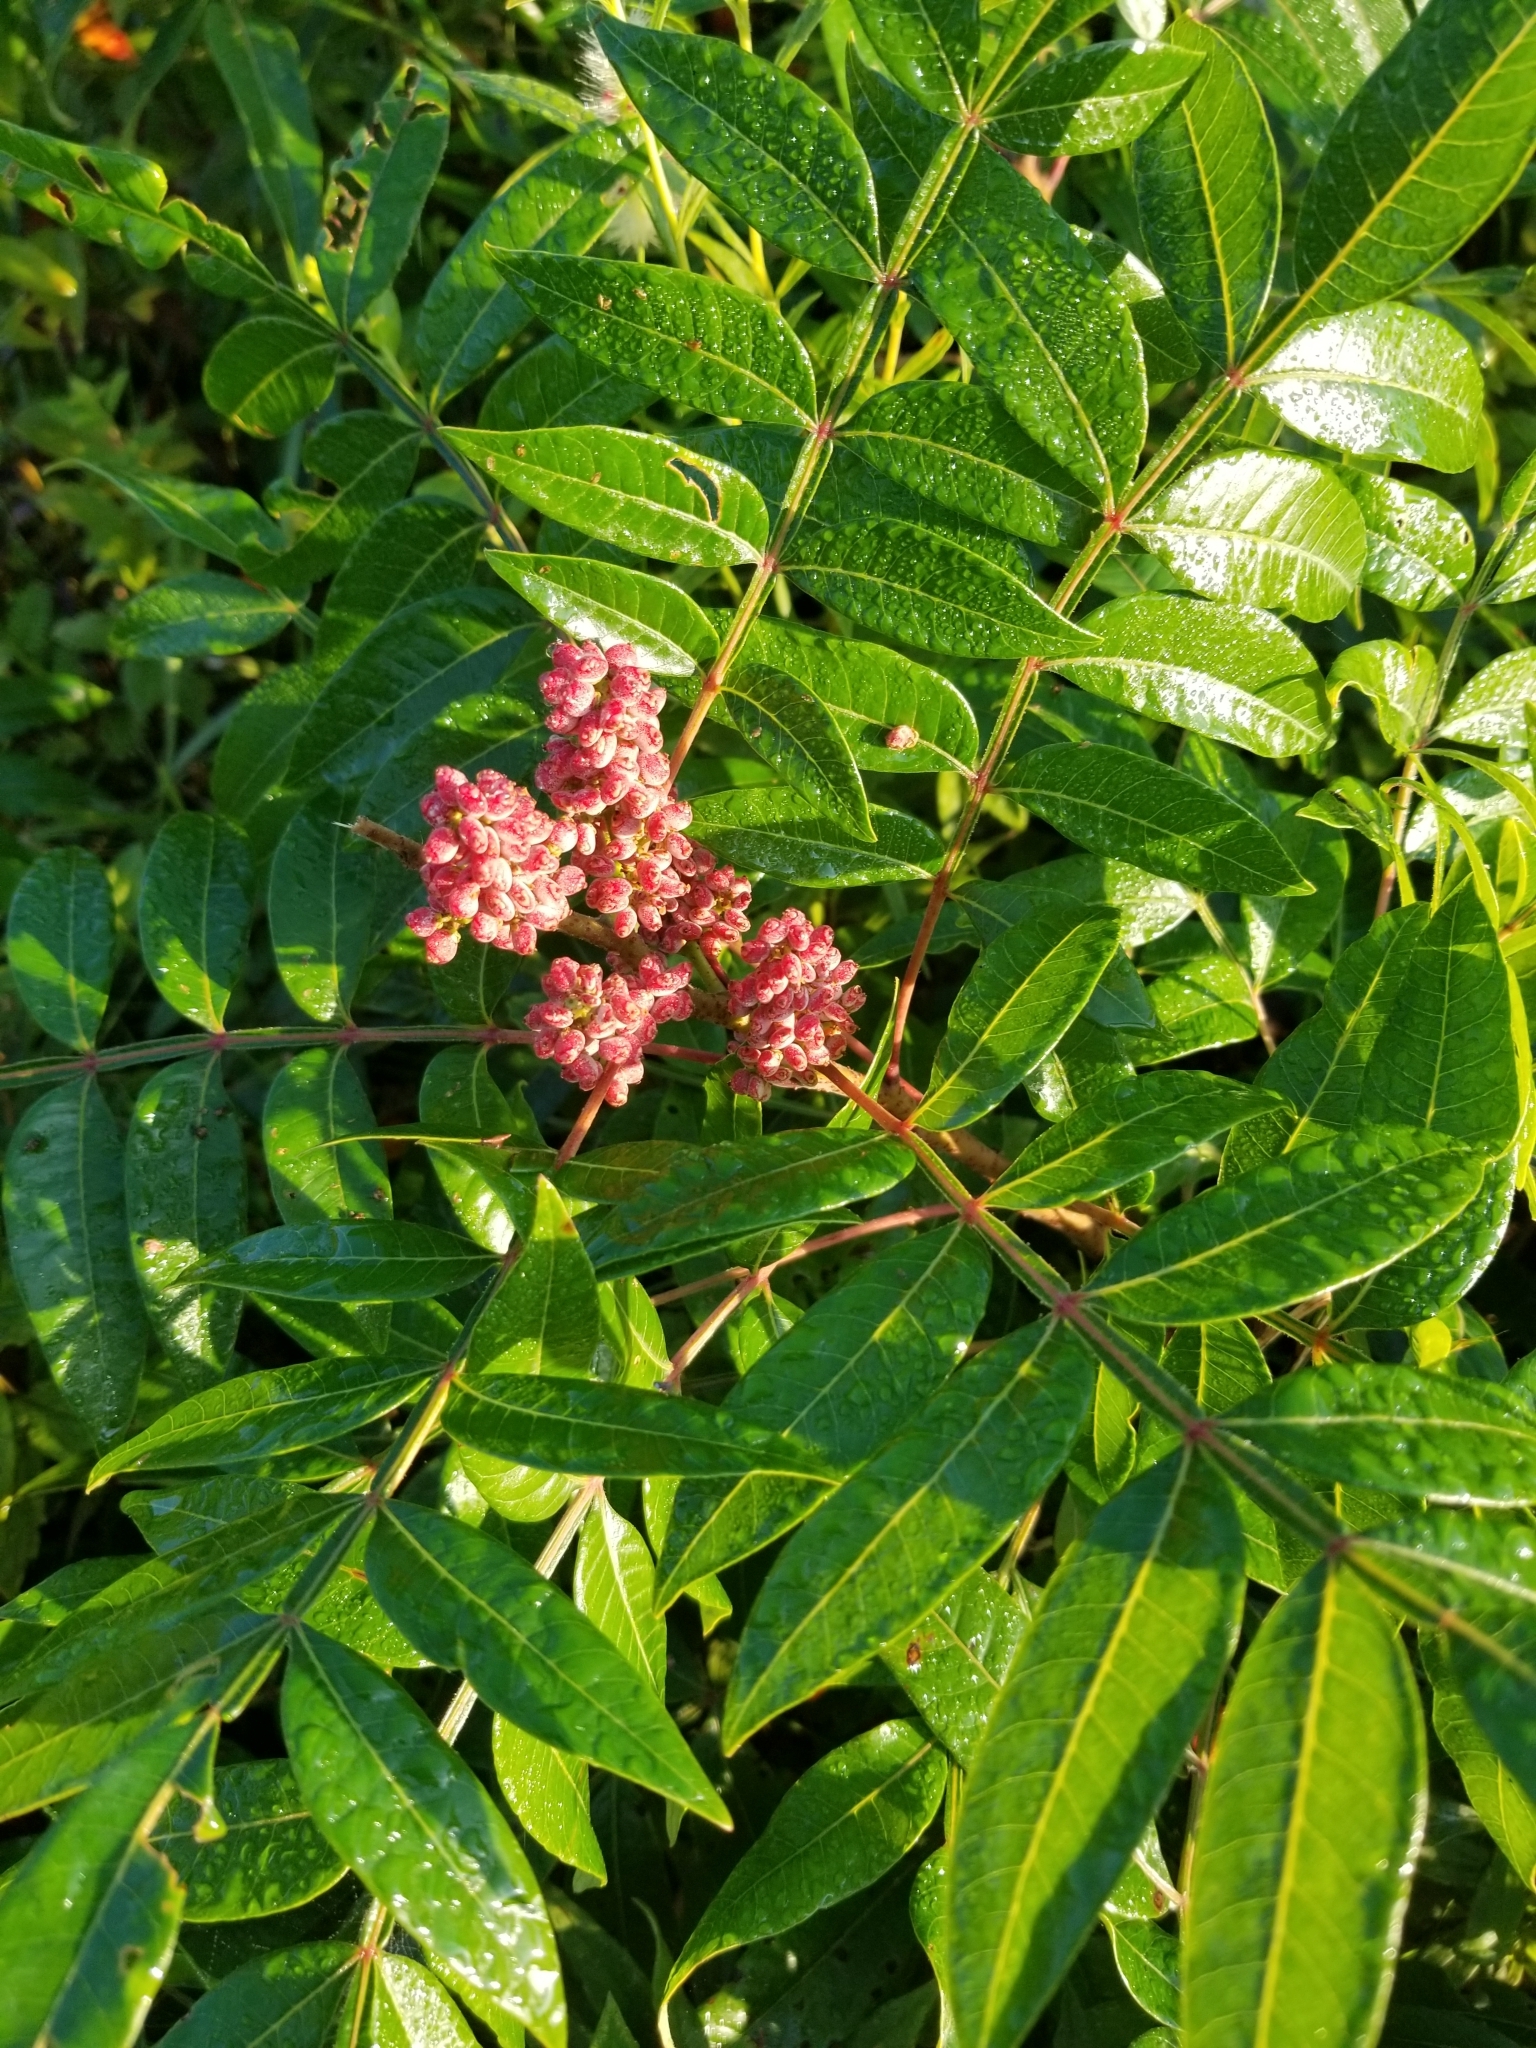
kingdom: Plantae
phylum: Tracheophyta
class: Magnoliopsida
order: Sapindales
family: Anacardiaceae
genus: Rhus
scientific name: Rhus copallina
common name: Shining sumac
